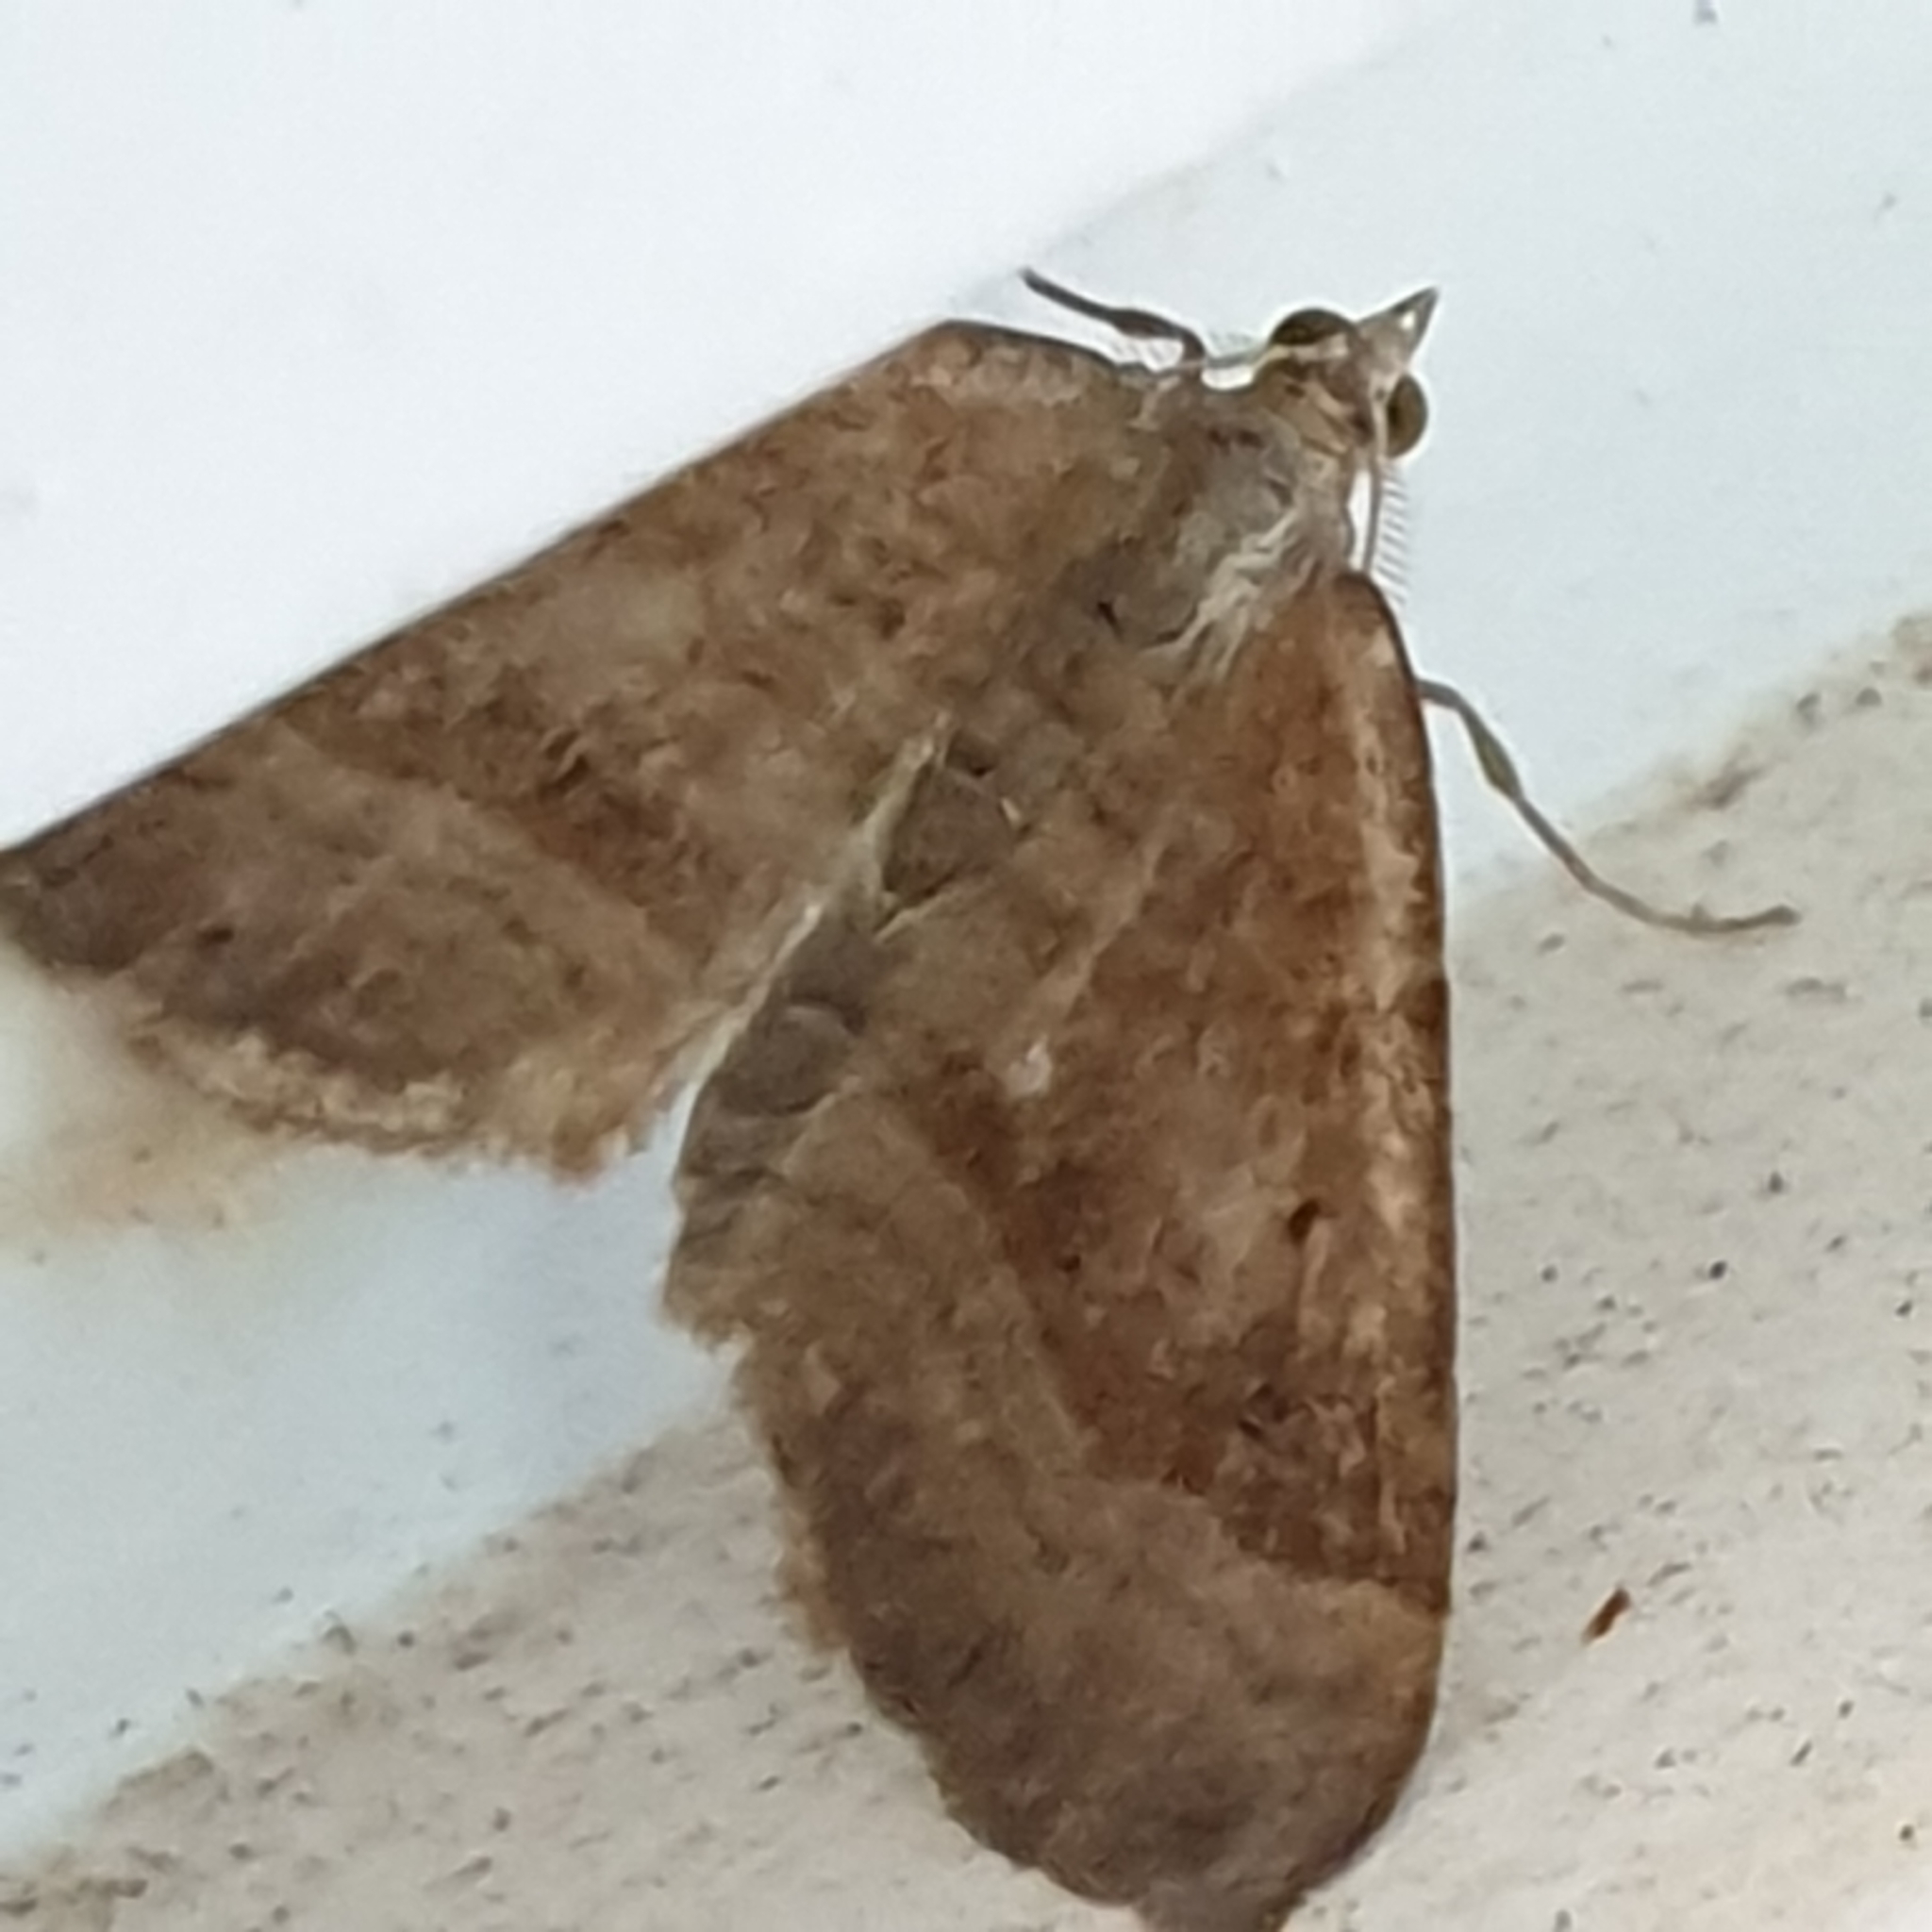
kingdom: Animalia
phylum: Arthropoda
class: Insecta
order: Lepidoptera
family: Geometridae
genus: Scotopteryx
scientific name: Scotopteryx chenopodiata
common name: Shaded broad-bar
